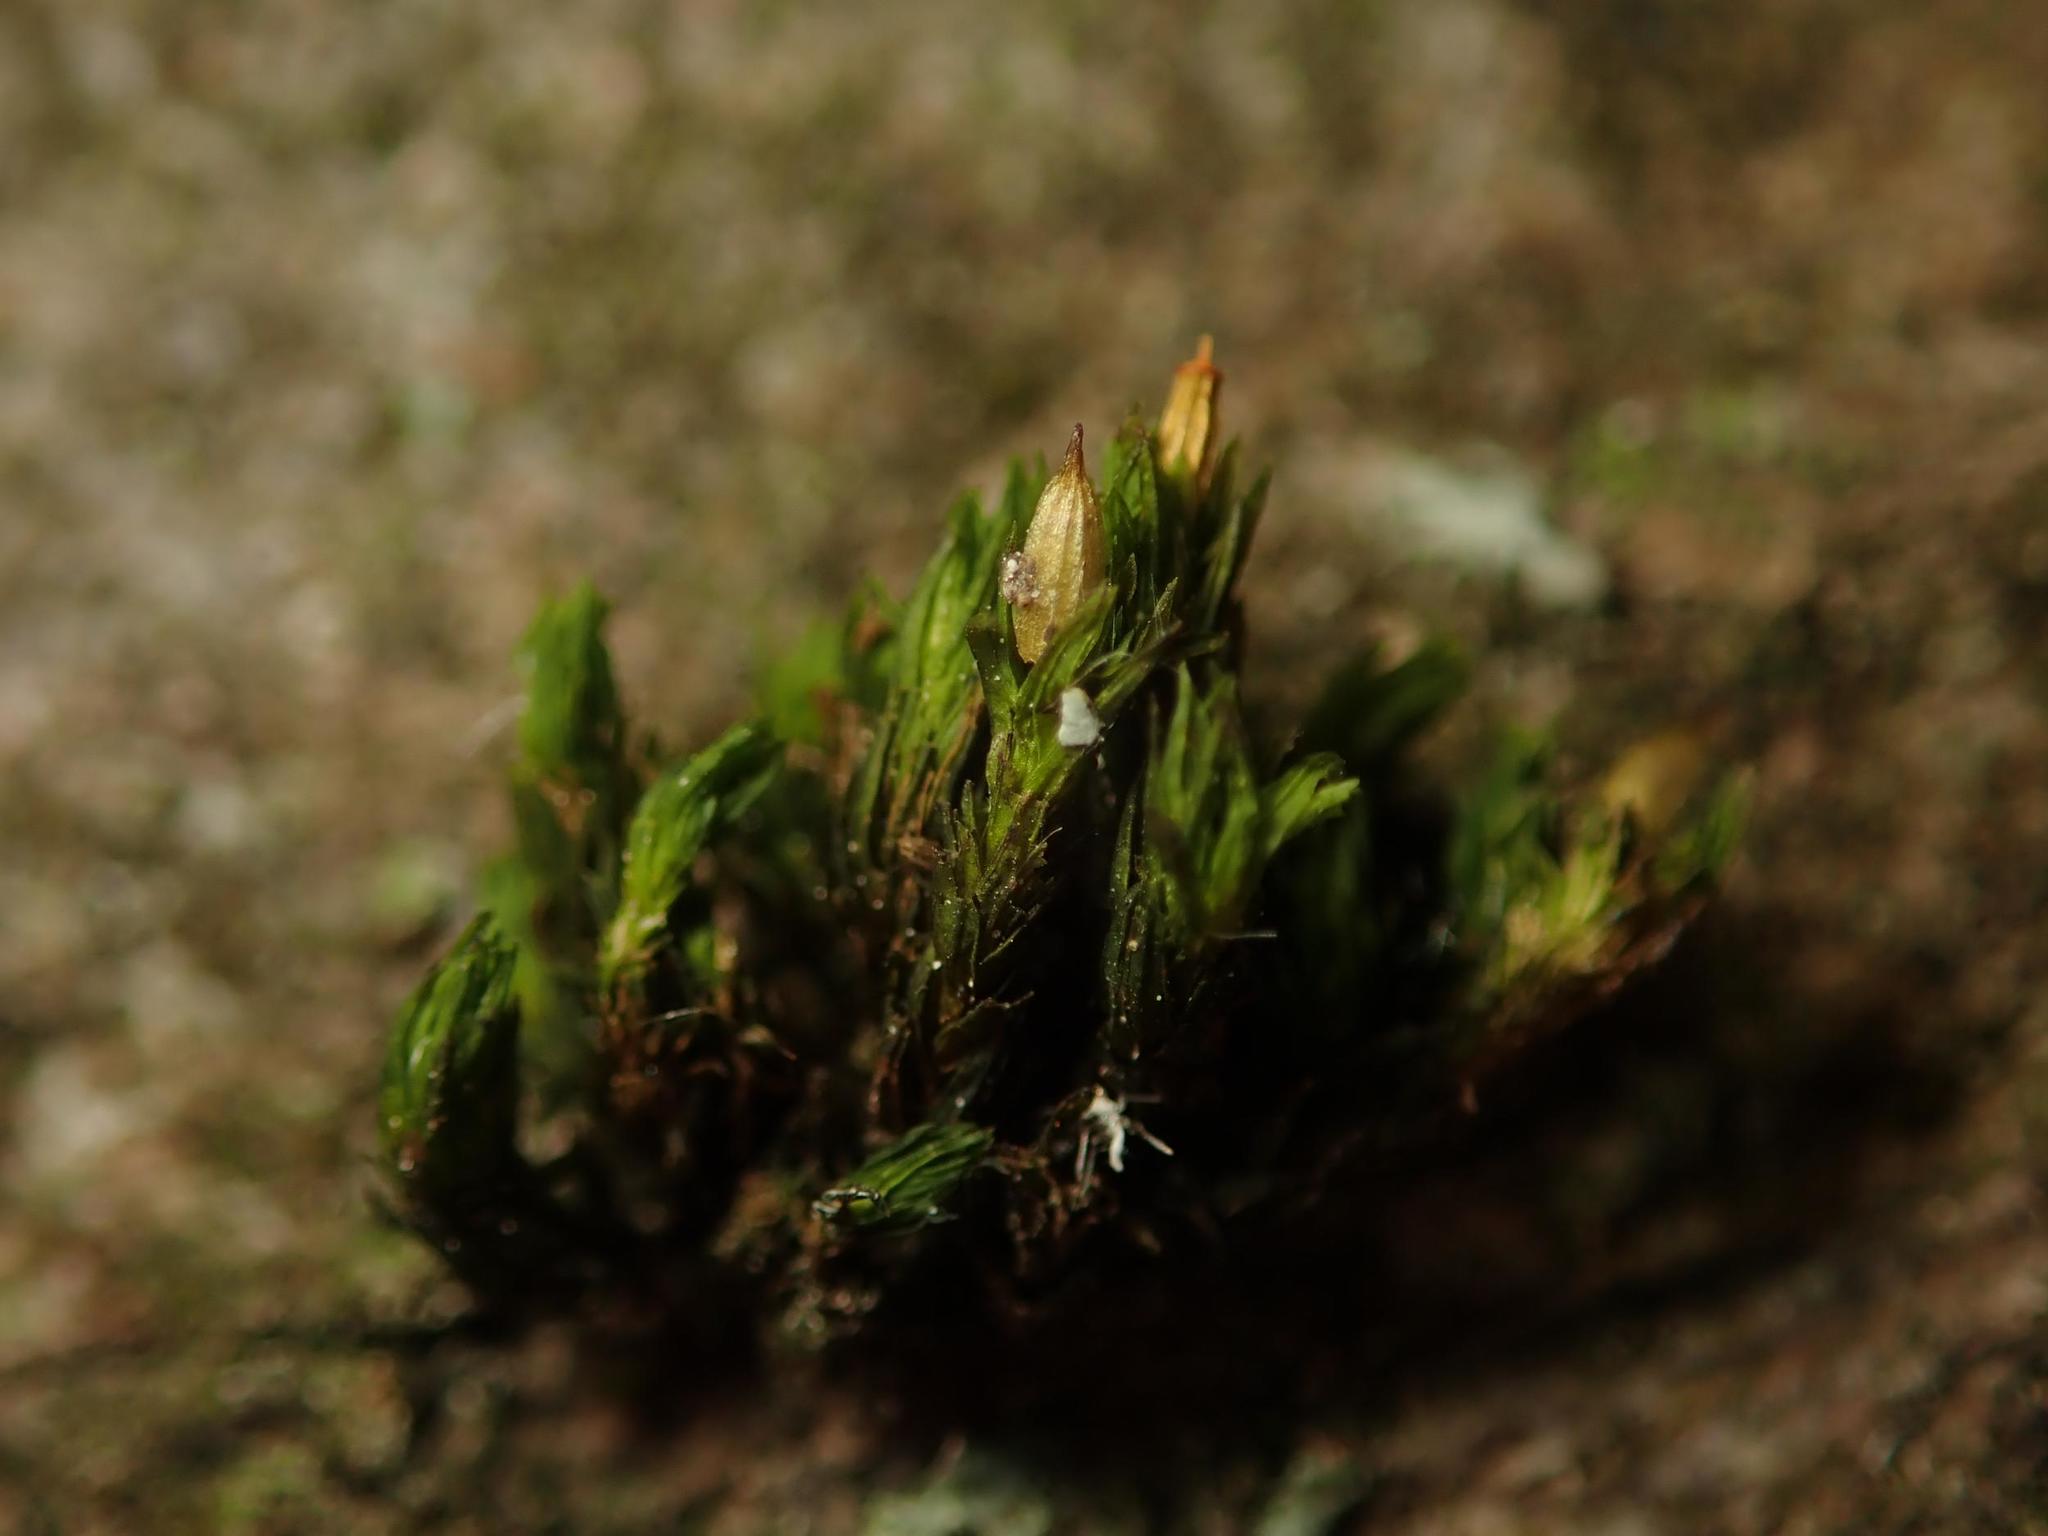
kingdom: Plantae
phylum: Bryophyta
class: Bryopsida
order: Orthotrichales
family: Orthotrichaceae
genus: Lewinskya
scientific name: Lewinskya affinis
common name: Wood bristle-moss
